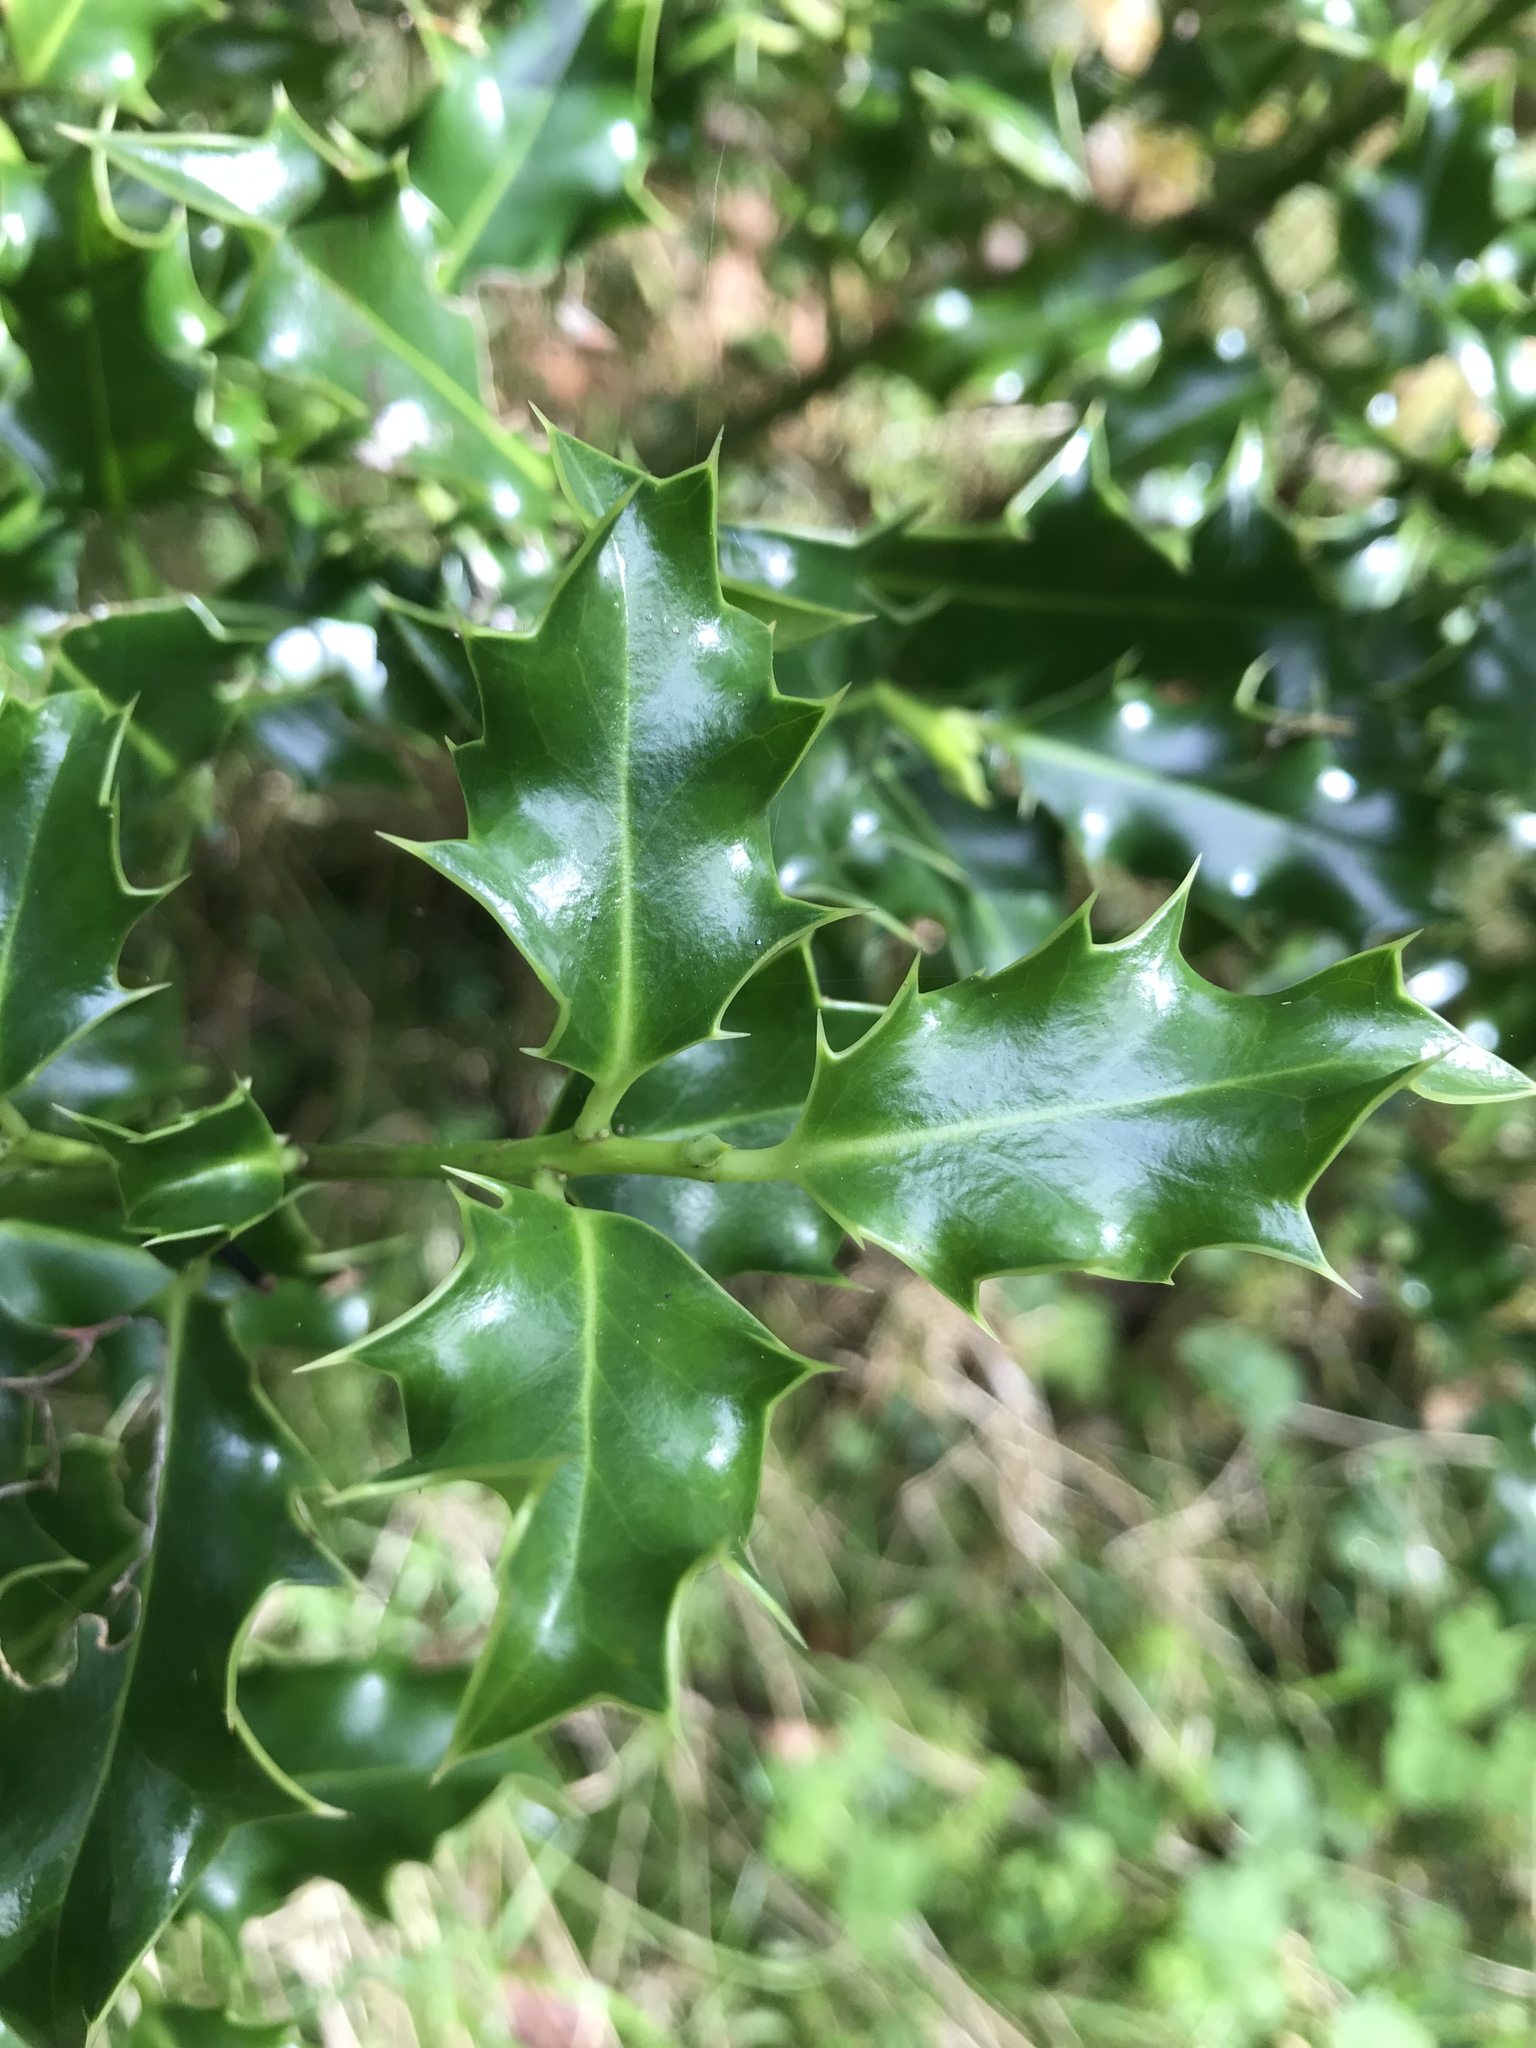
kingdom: Plantae
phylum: Tracheophyta
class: Magnoliopsida
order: Aquifoliales
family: Aquifoliaceae
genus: Ilex
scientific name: Ilex aquifolium
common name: English holly
